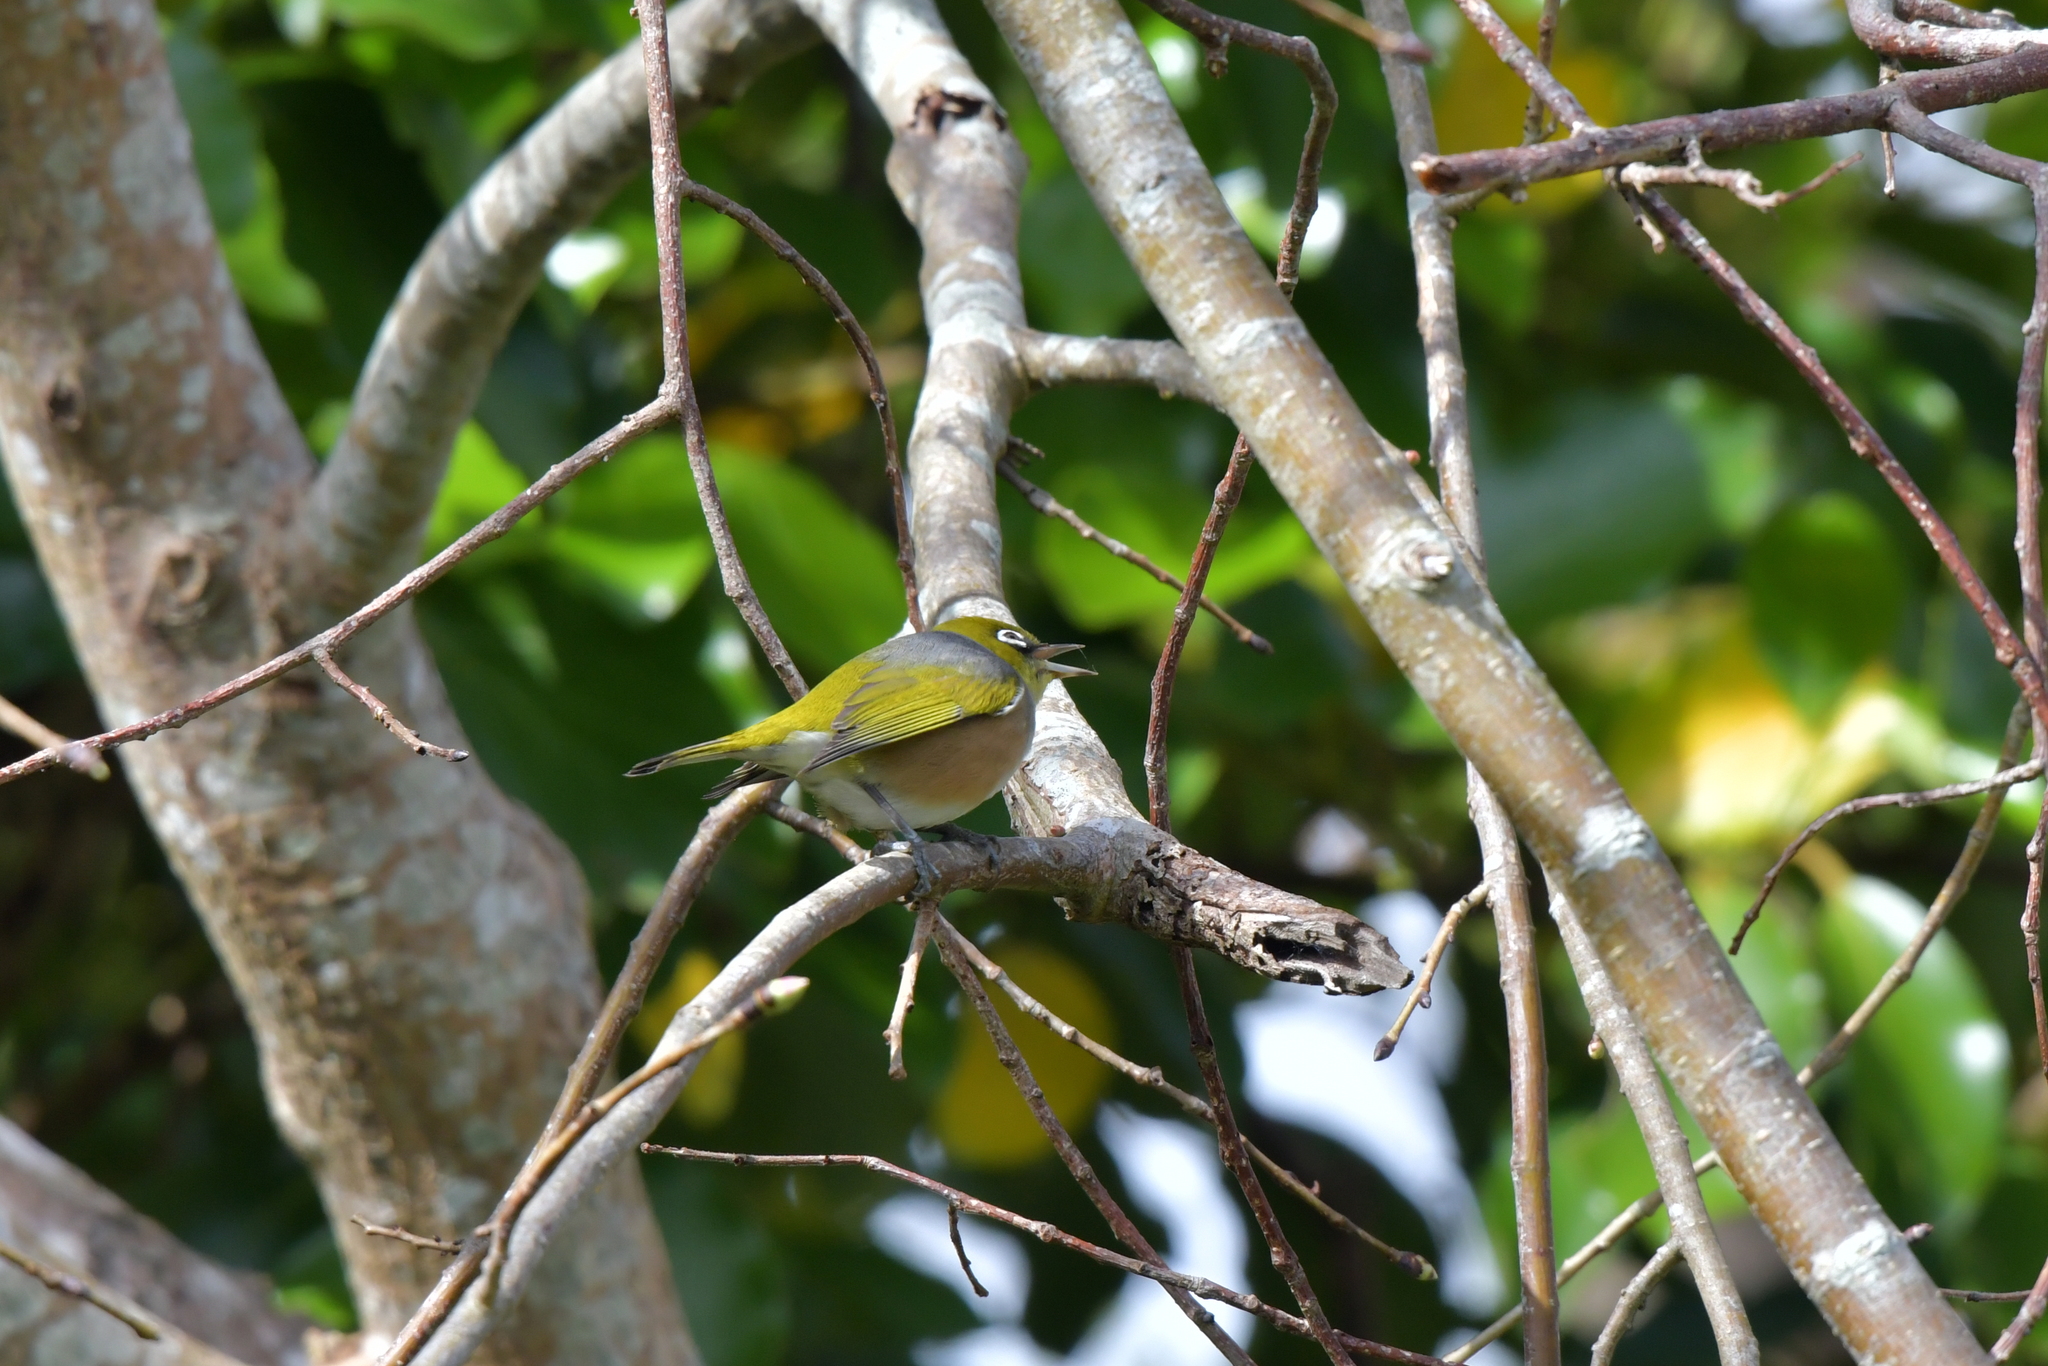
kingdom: Animalia
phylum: Chordata
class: Aves
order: Passeriformes
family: Zosteropidae
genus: Zosterops
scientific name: Zosterops lateralis
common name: Silvereye
